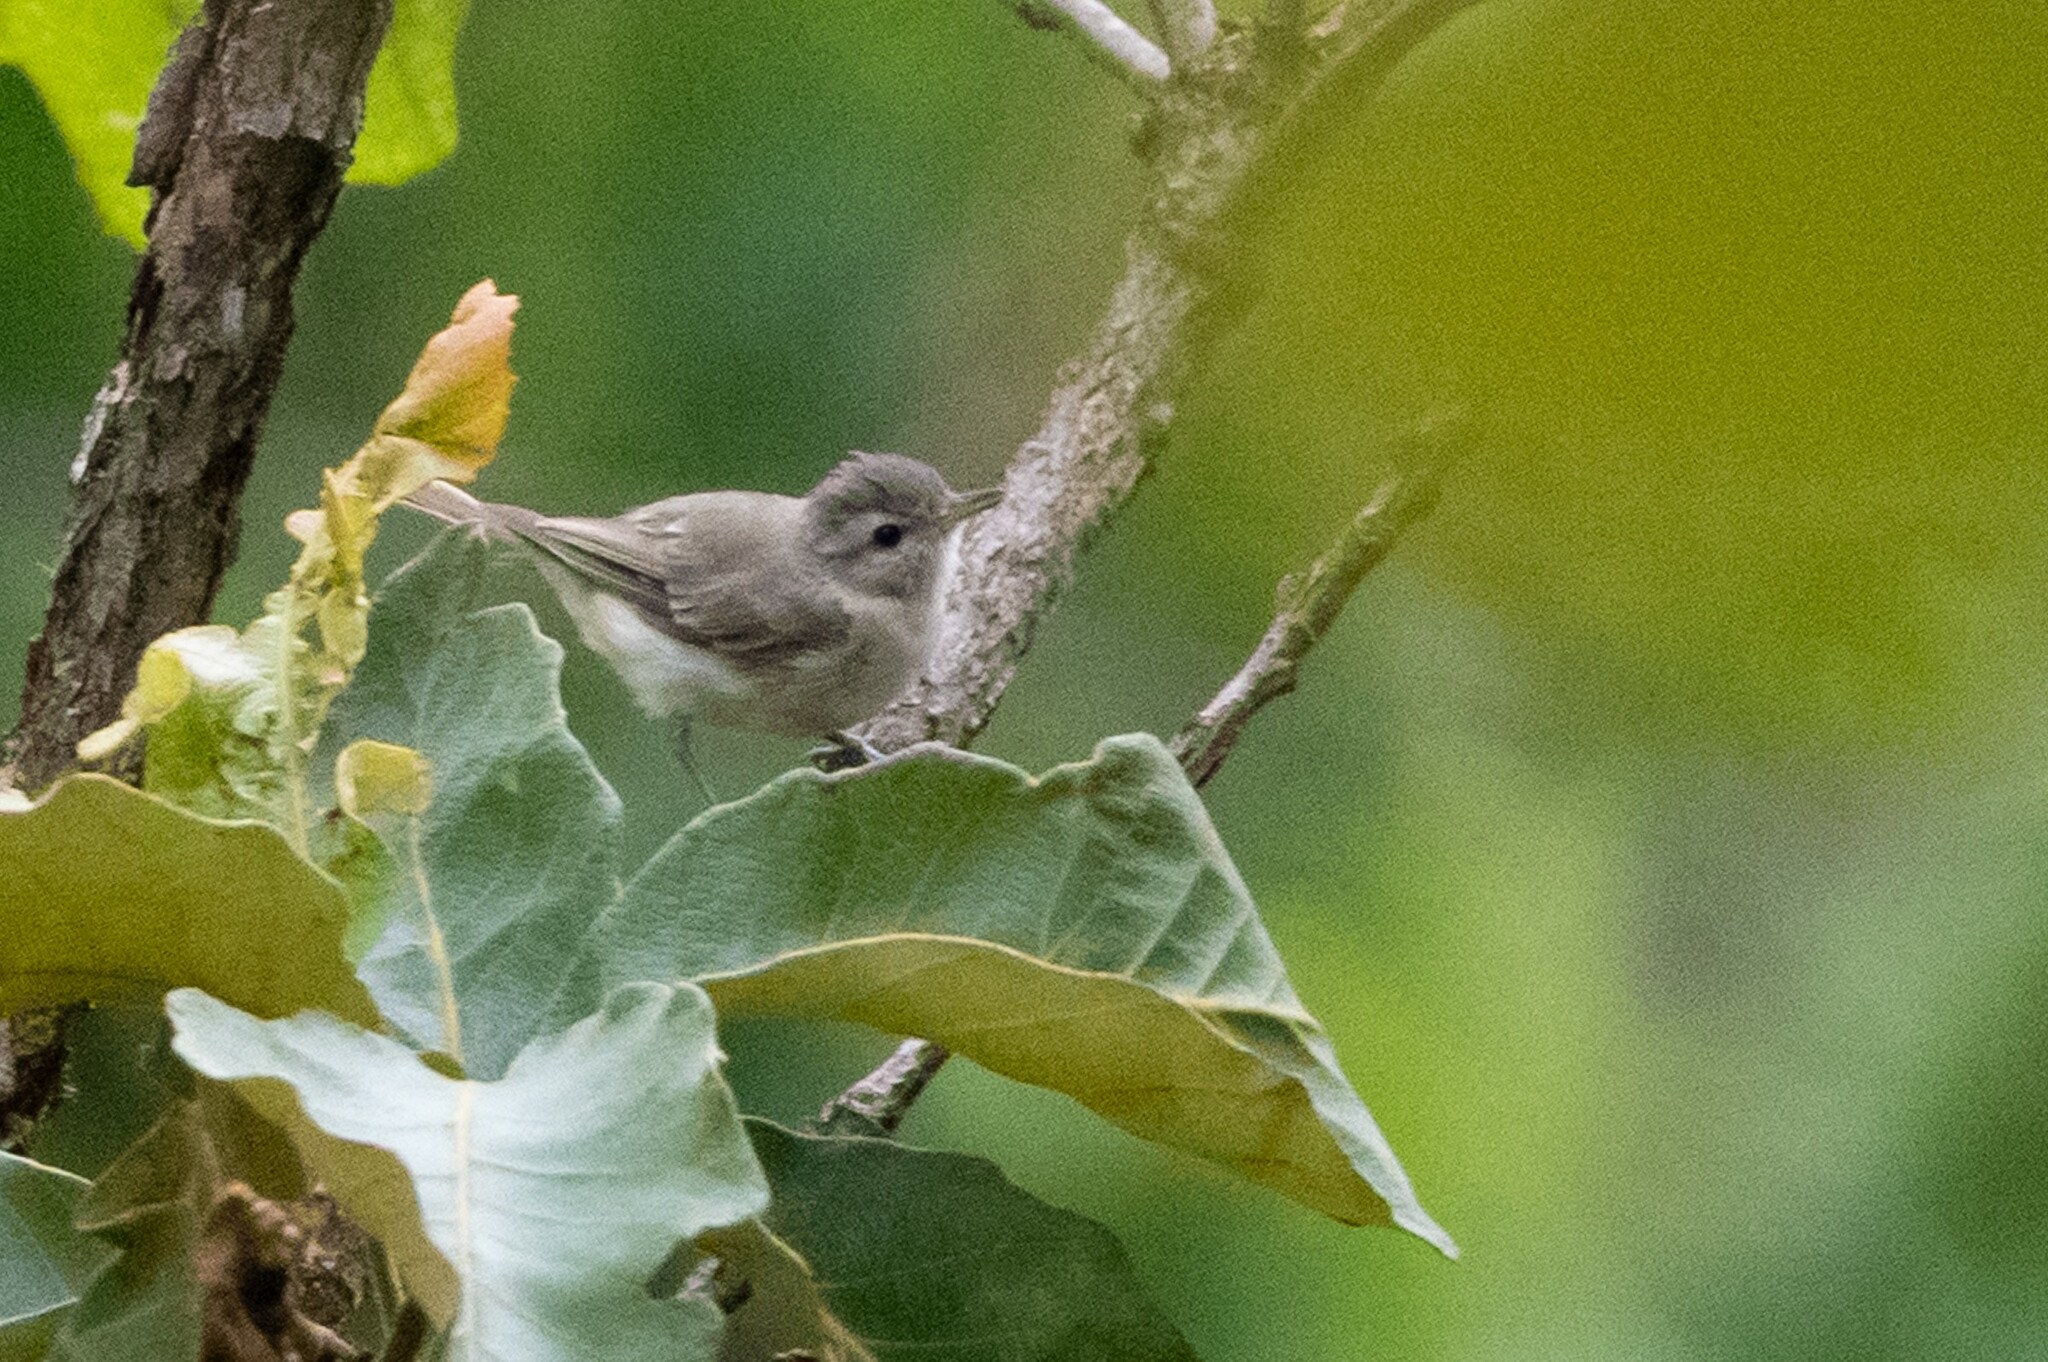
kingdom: Animalia
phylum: Chordata
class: Aves
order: Passeriformes
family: Vireonidae
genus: Vireo
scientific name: Vireo gilvus
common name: Warbling vireo
